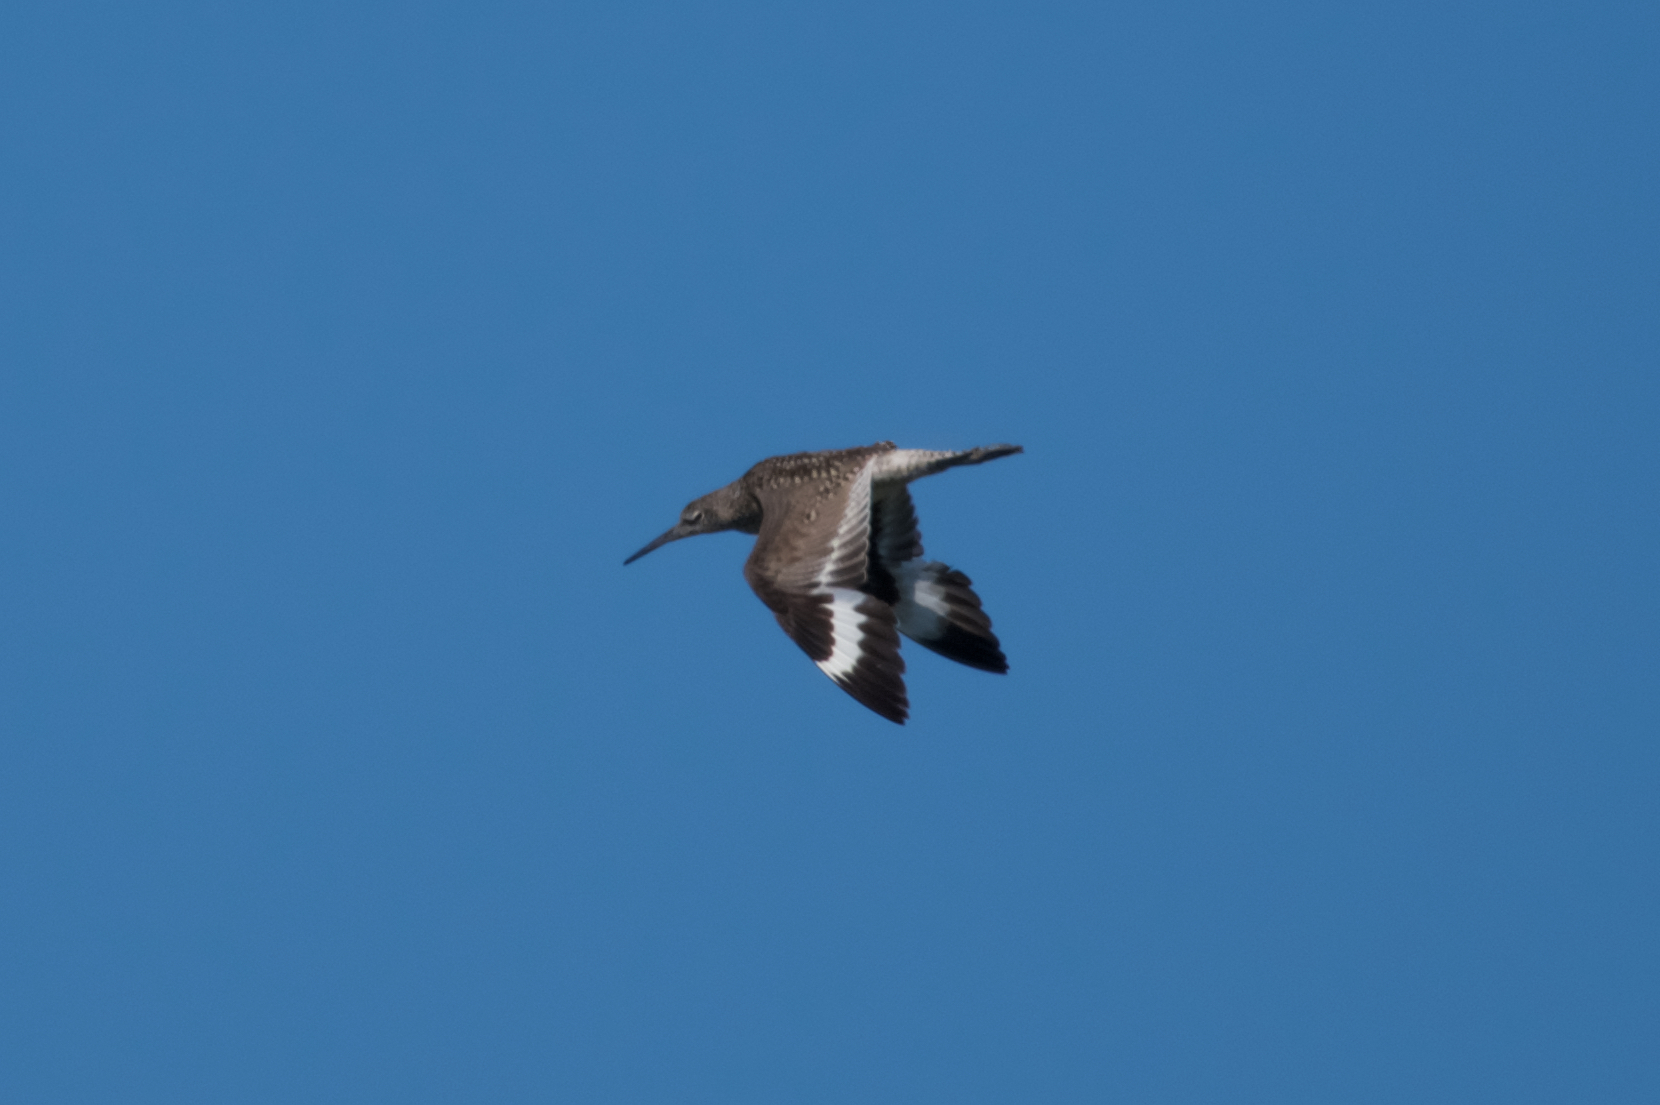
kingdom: Animalia
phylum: Chordata
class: Aves
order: Charadriiformes
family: Scolopacidae
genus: Tringa
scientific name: Tringa semipalmata
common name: Willet
